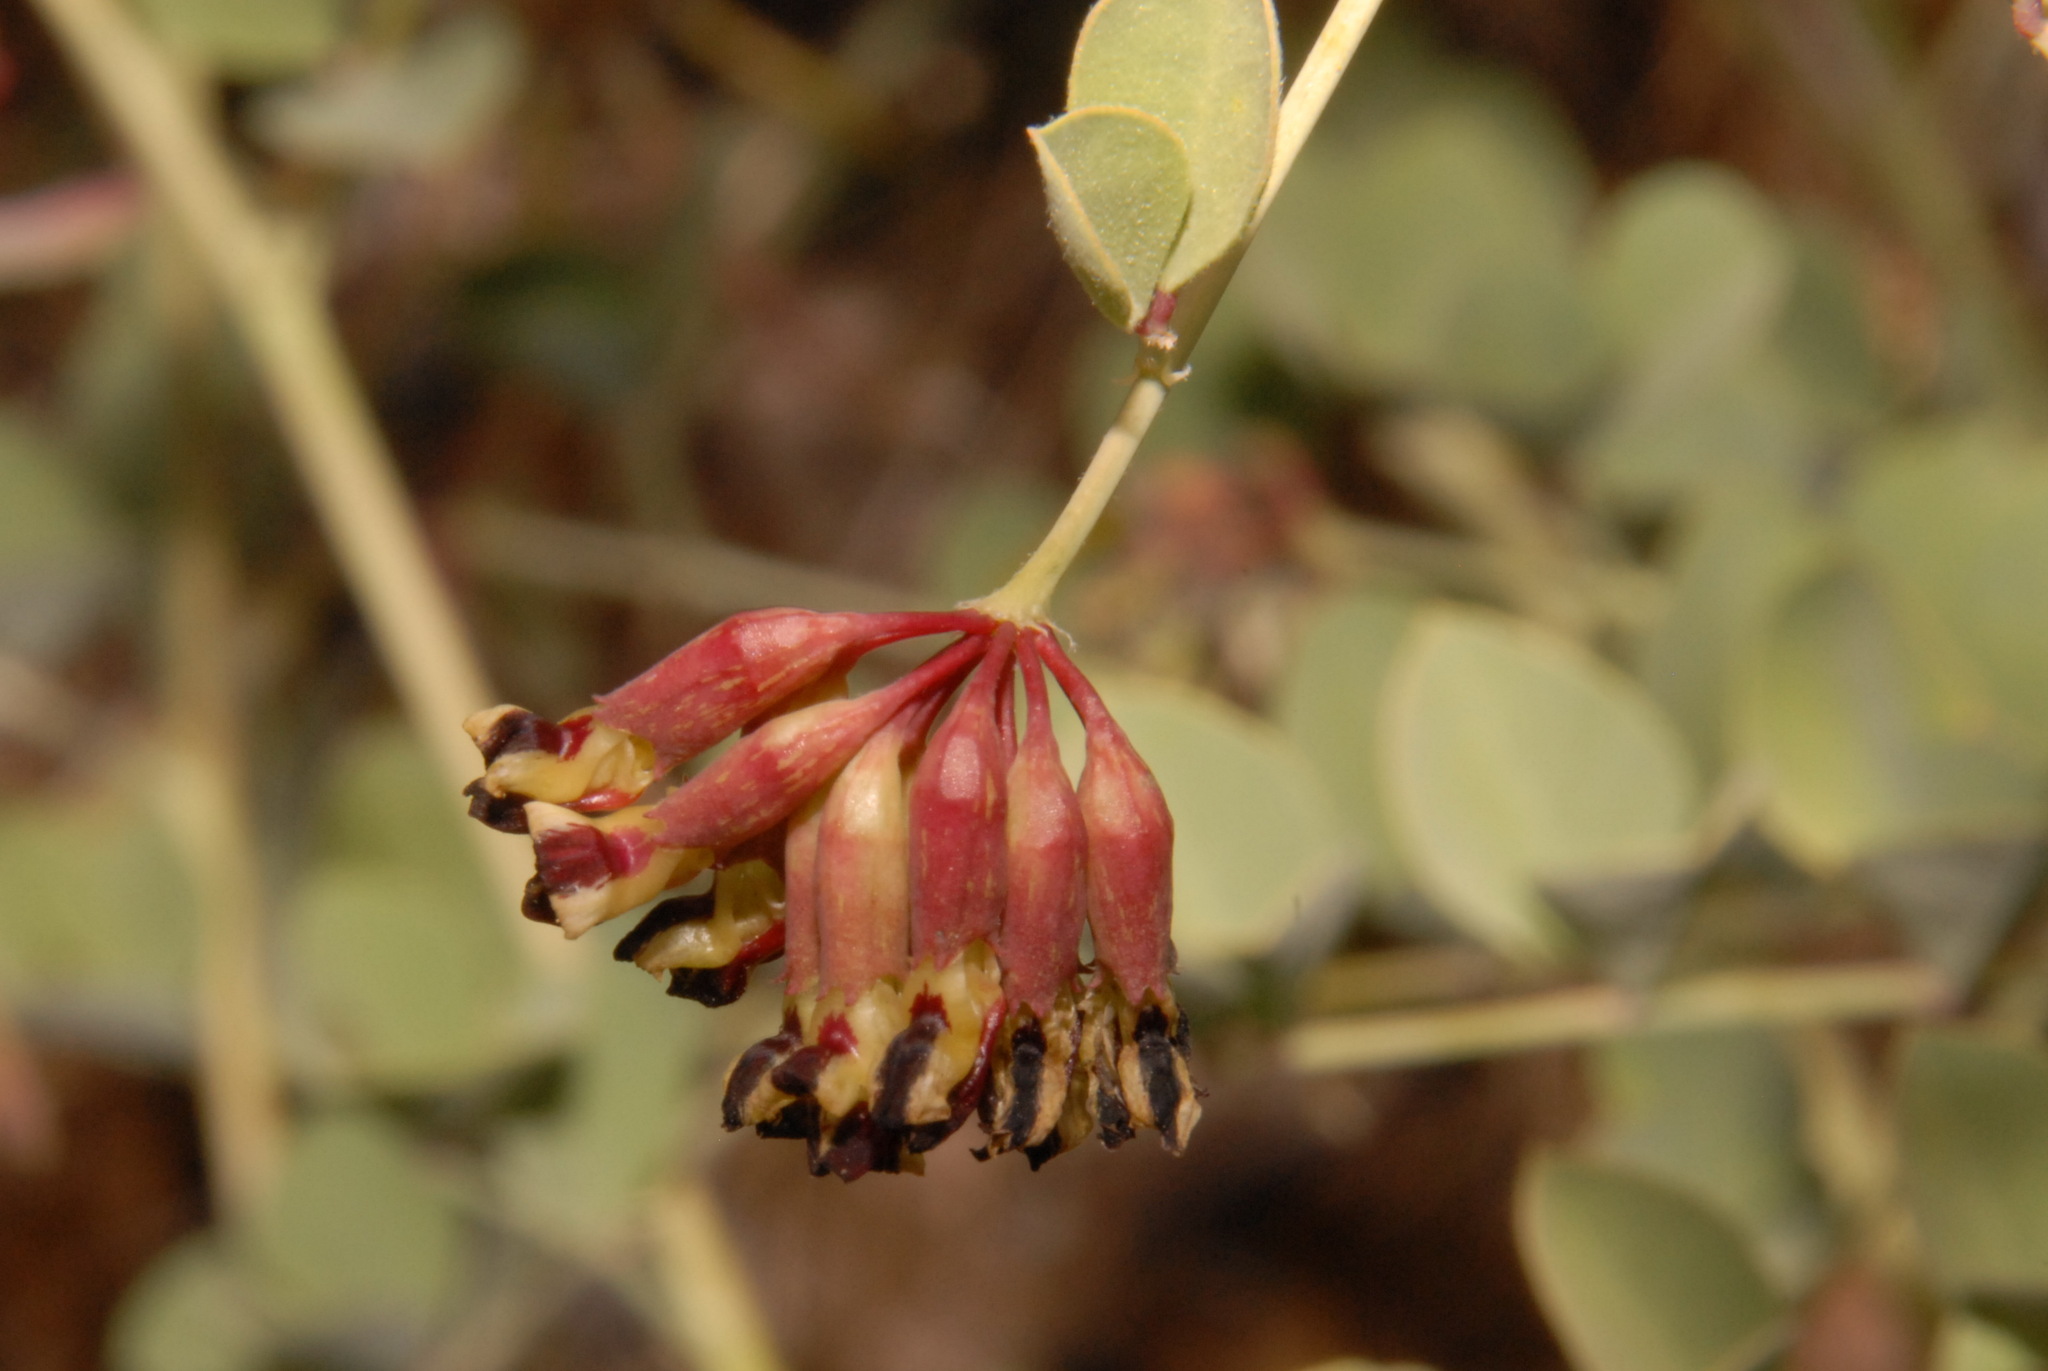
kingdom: Plantae
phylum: Tracheophyta
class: Magnoliopsida
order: Fabales
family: Fabaceae
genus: Hosackia
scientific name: Hosackia crassifolia
